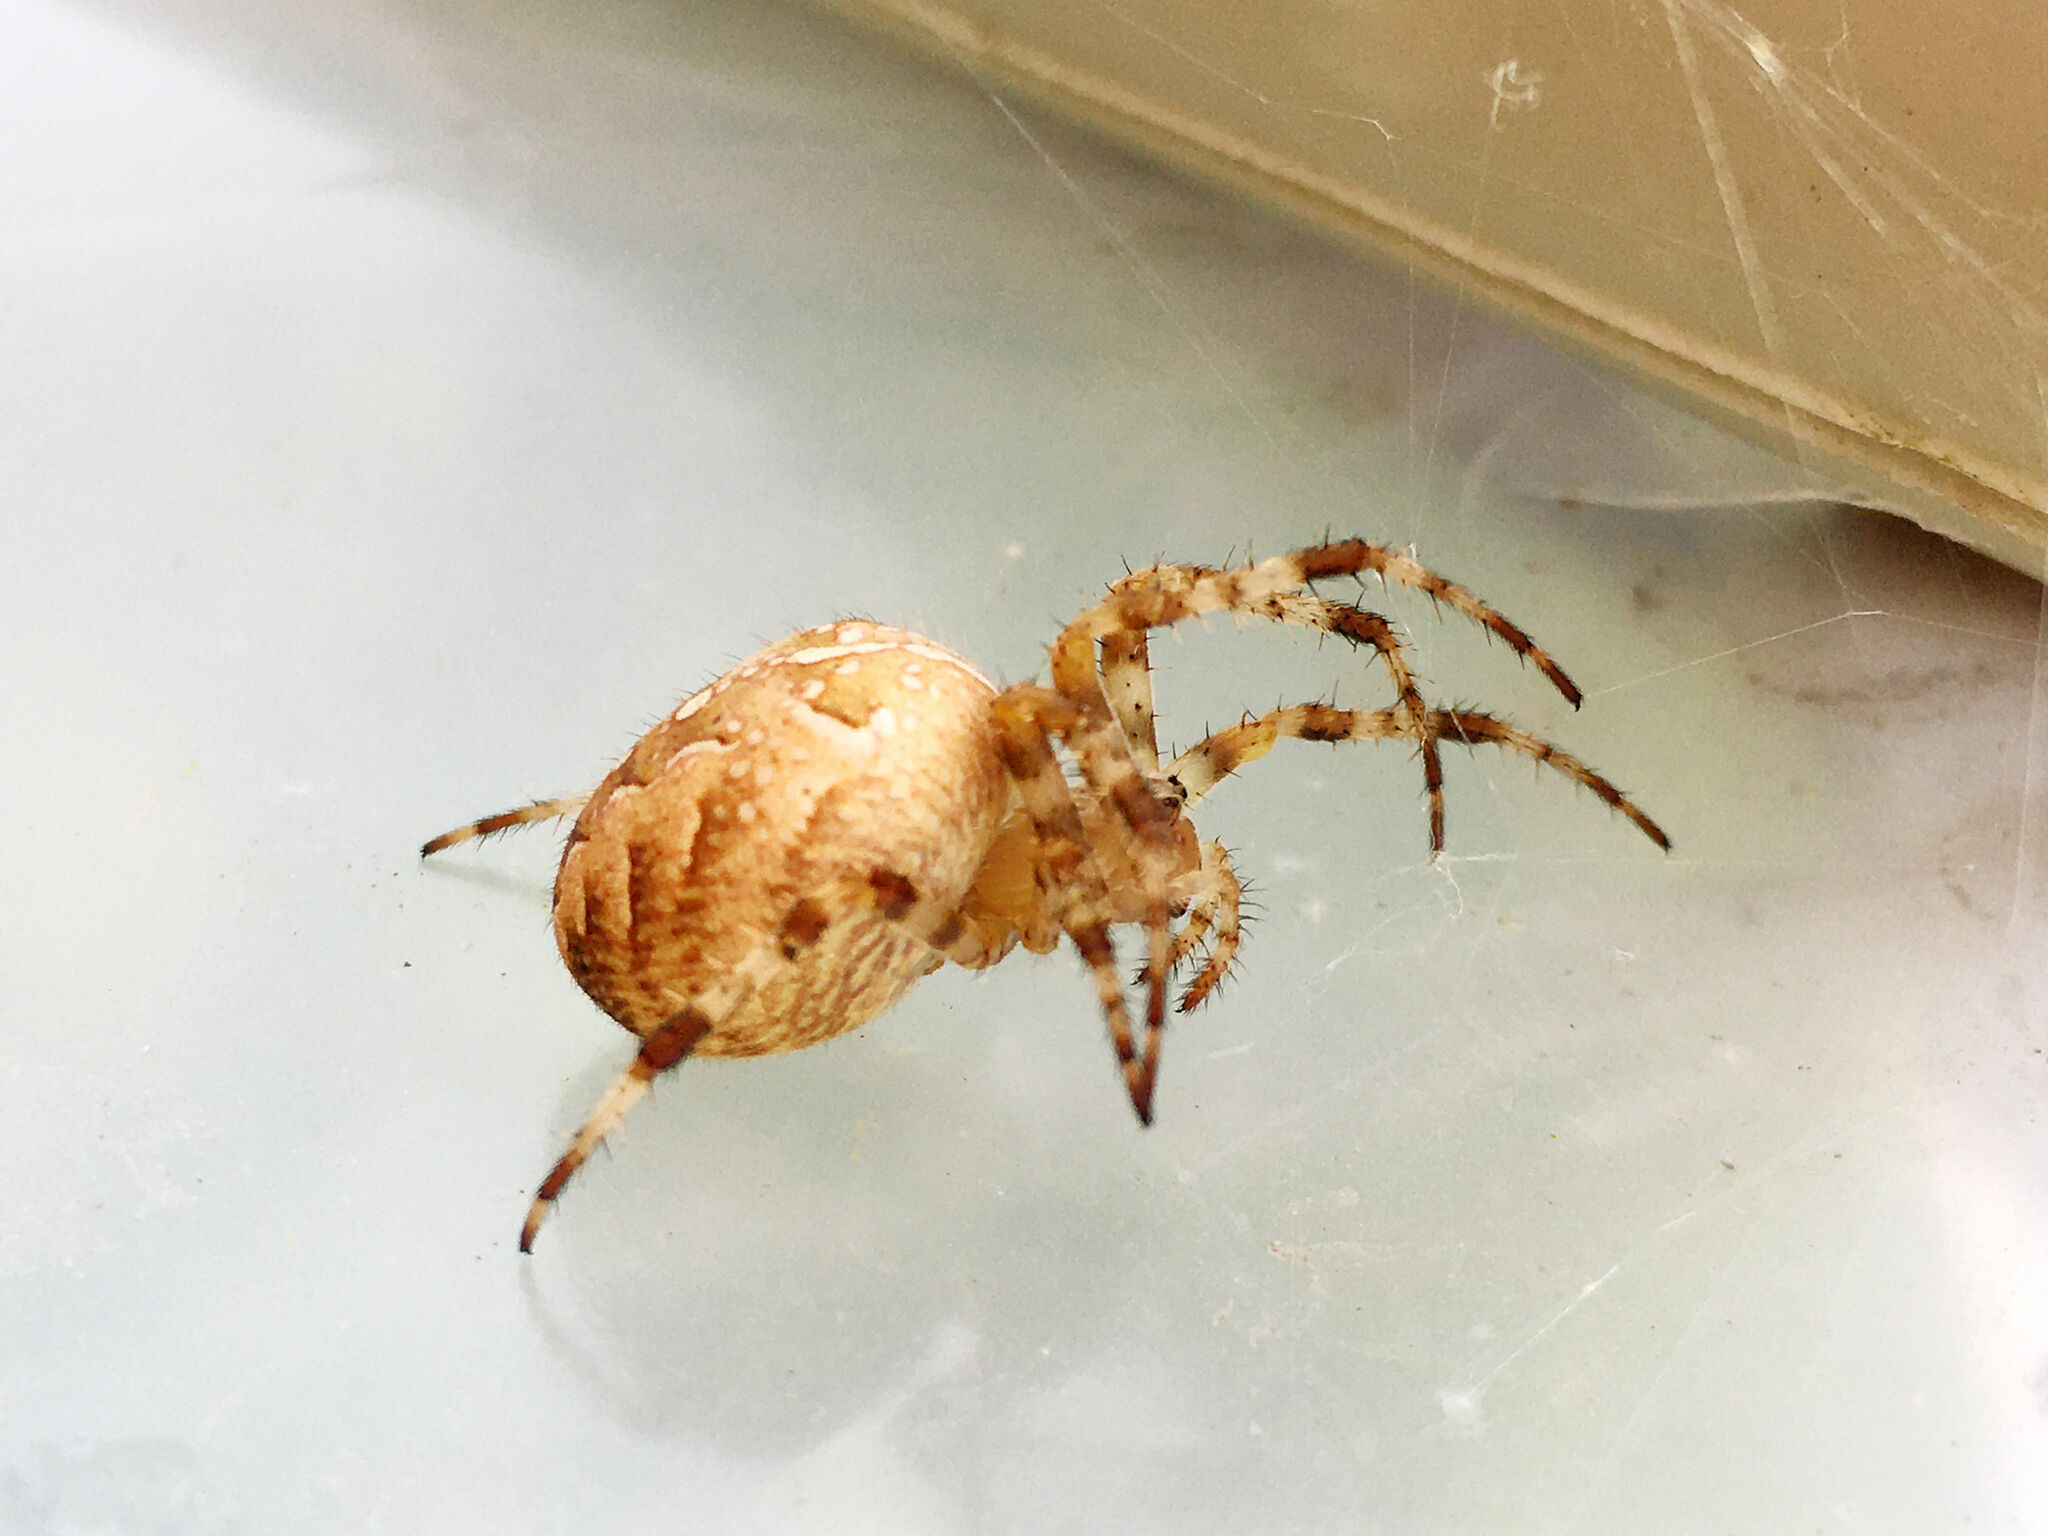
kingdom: Animalia
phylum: Arthropoda
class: Arachnida
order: Araneae
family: Araneidae
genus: Araneus
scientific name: Araneus diadematus
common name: Cross orbweaver
